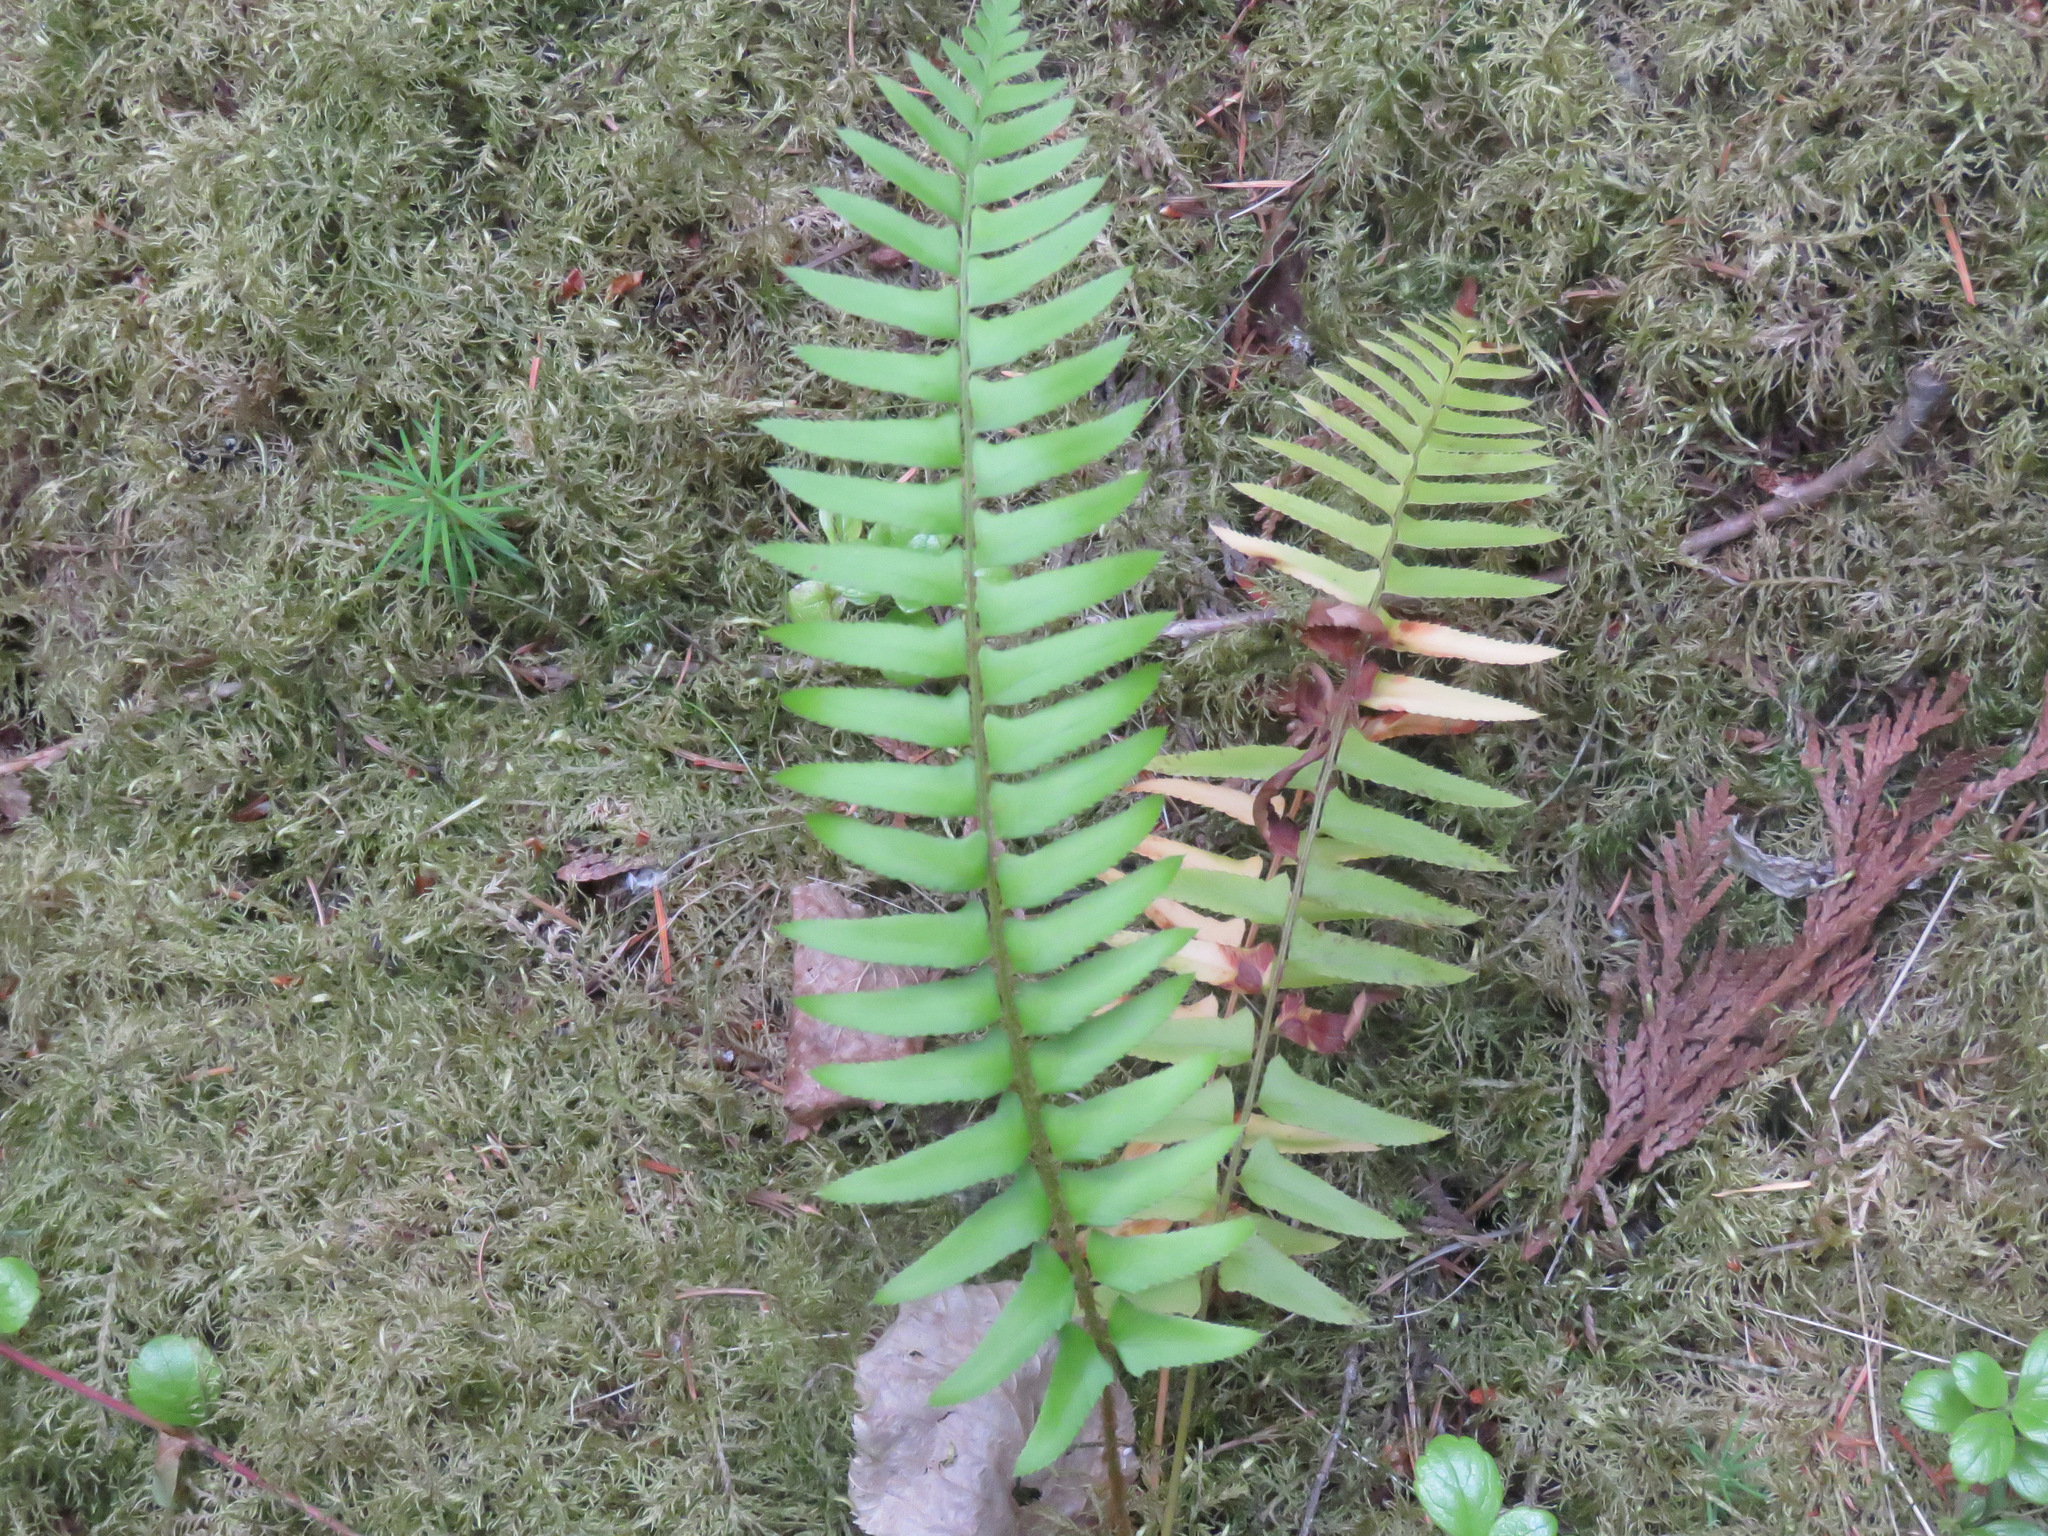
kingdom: Plantae
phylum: Tracheophyta
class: Polypodiopsida
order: Polypodiales
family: Dryopteridaceae
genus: Polystichum
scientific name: Polystichum munitum
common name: Western sword-fern
